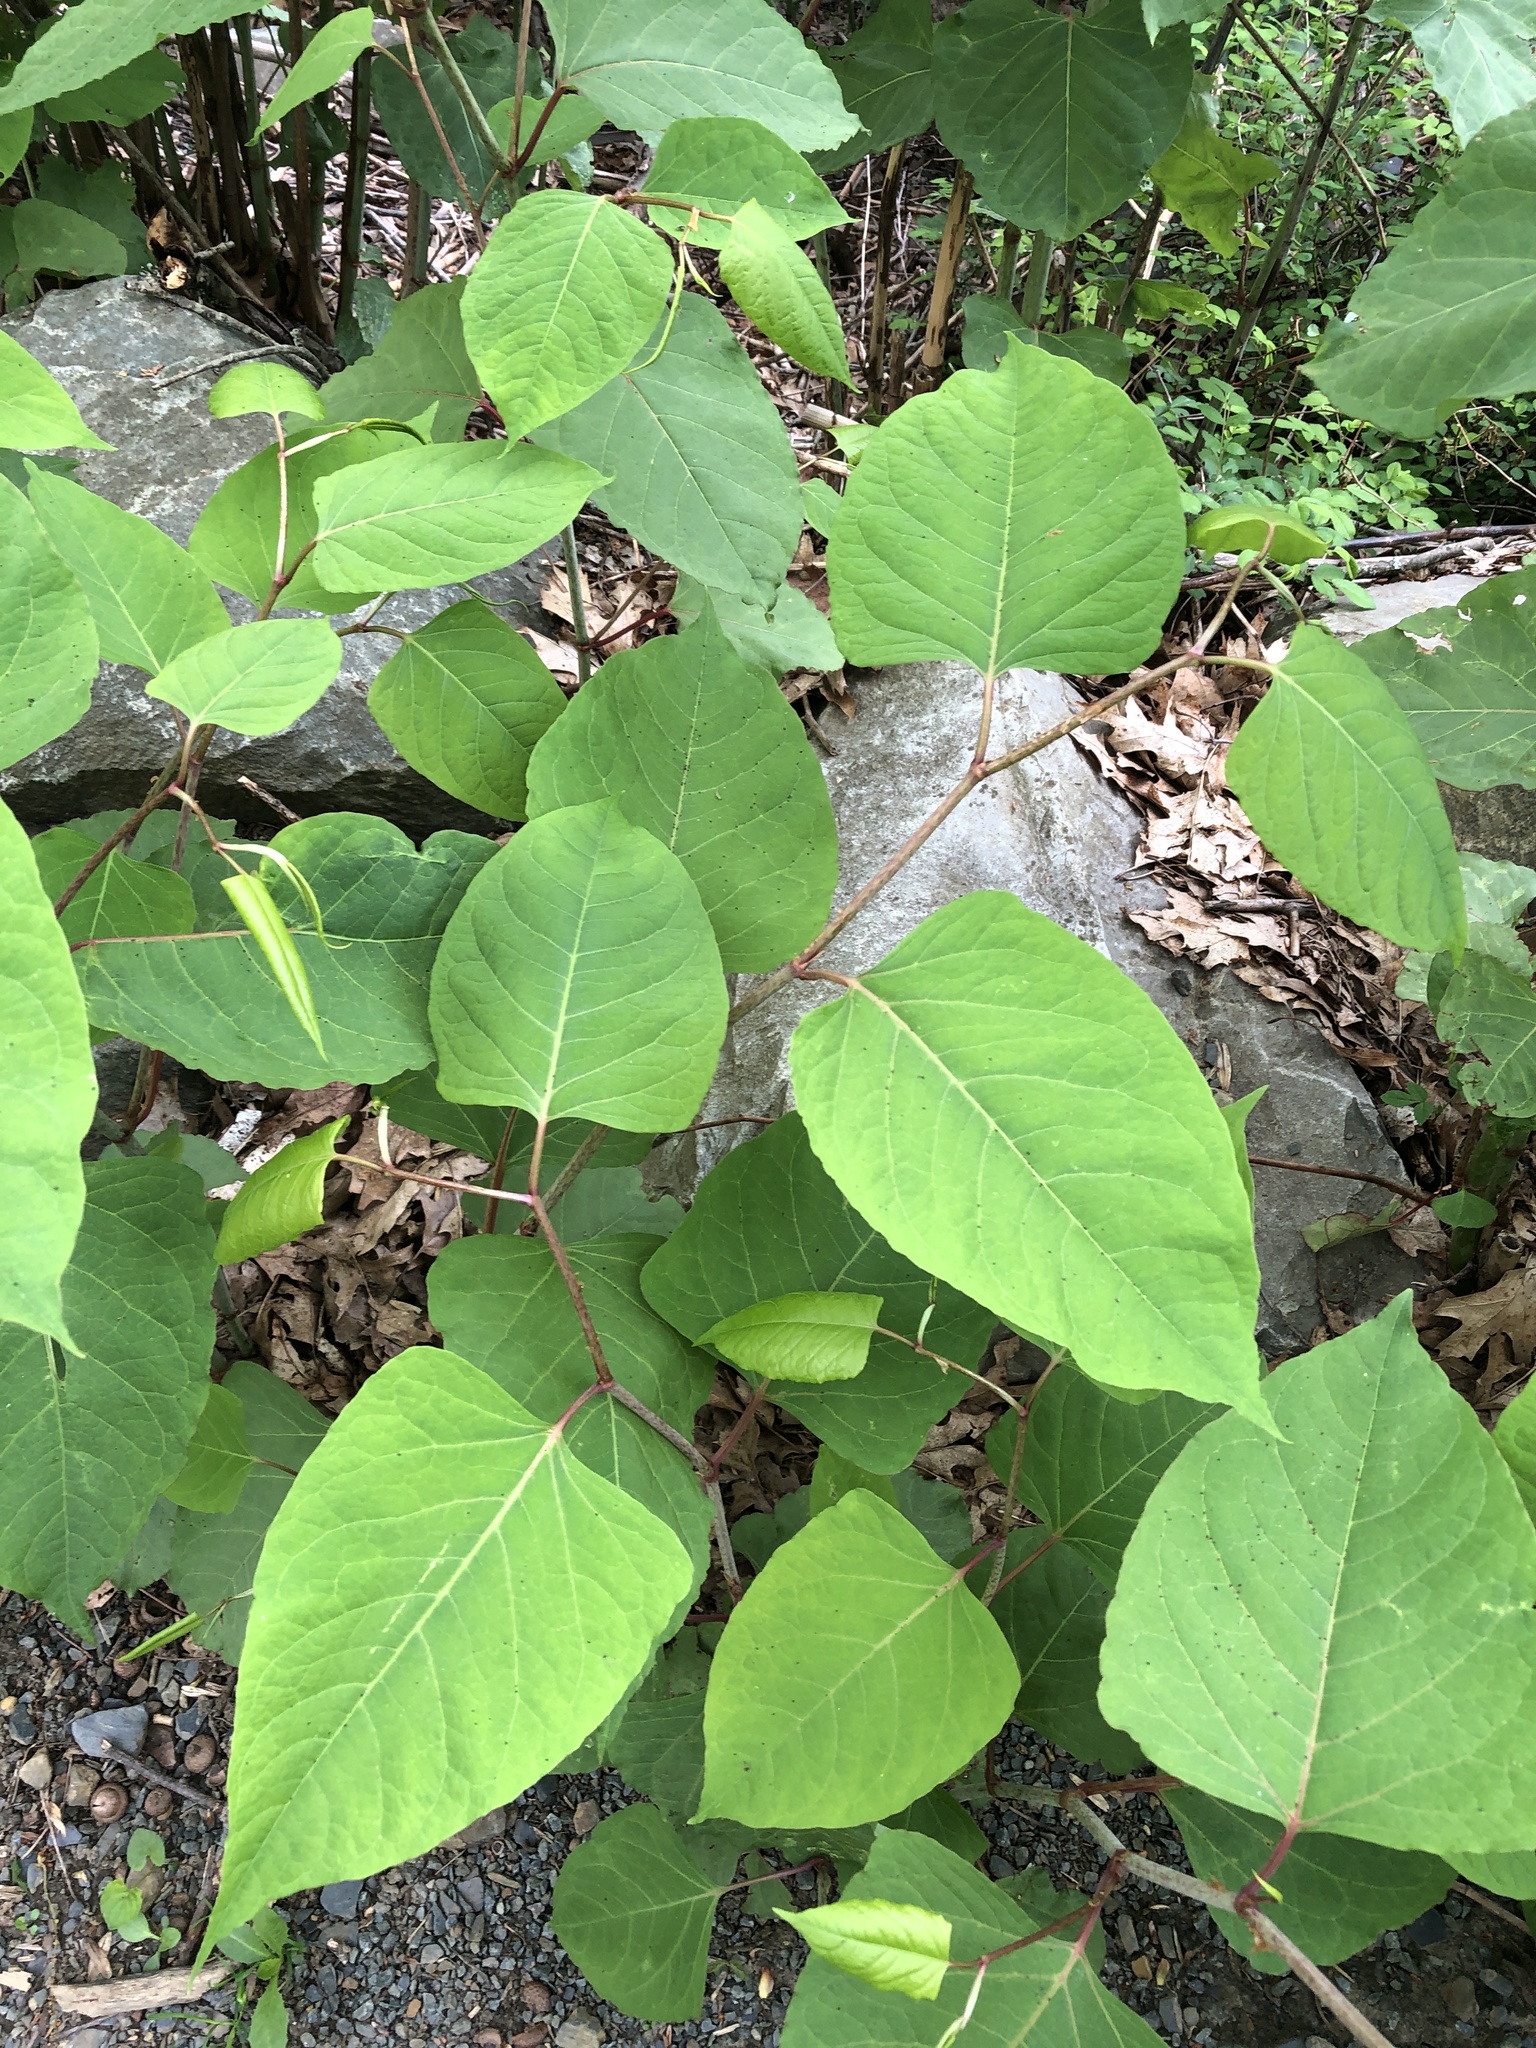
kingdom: Plantae
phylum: Tracheophyta
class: Magnoliopsida
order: Caryophyllales
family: Polygonaceae
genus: Reynoutria
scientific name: Reynoutria japonica
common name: Japanese knotweed
